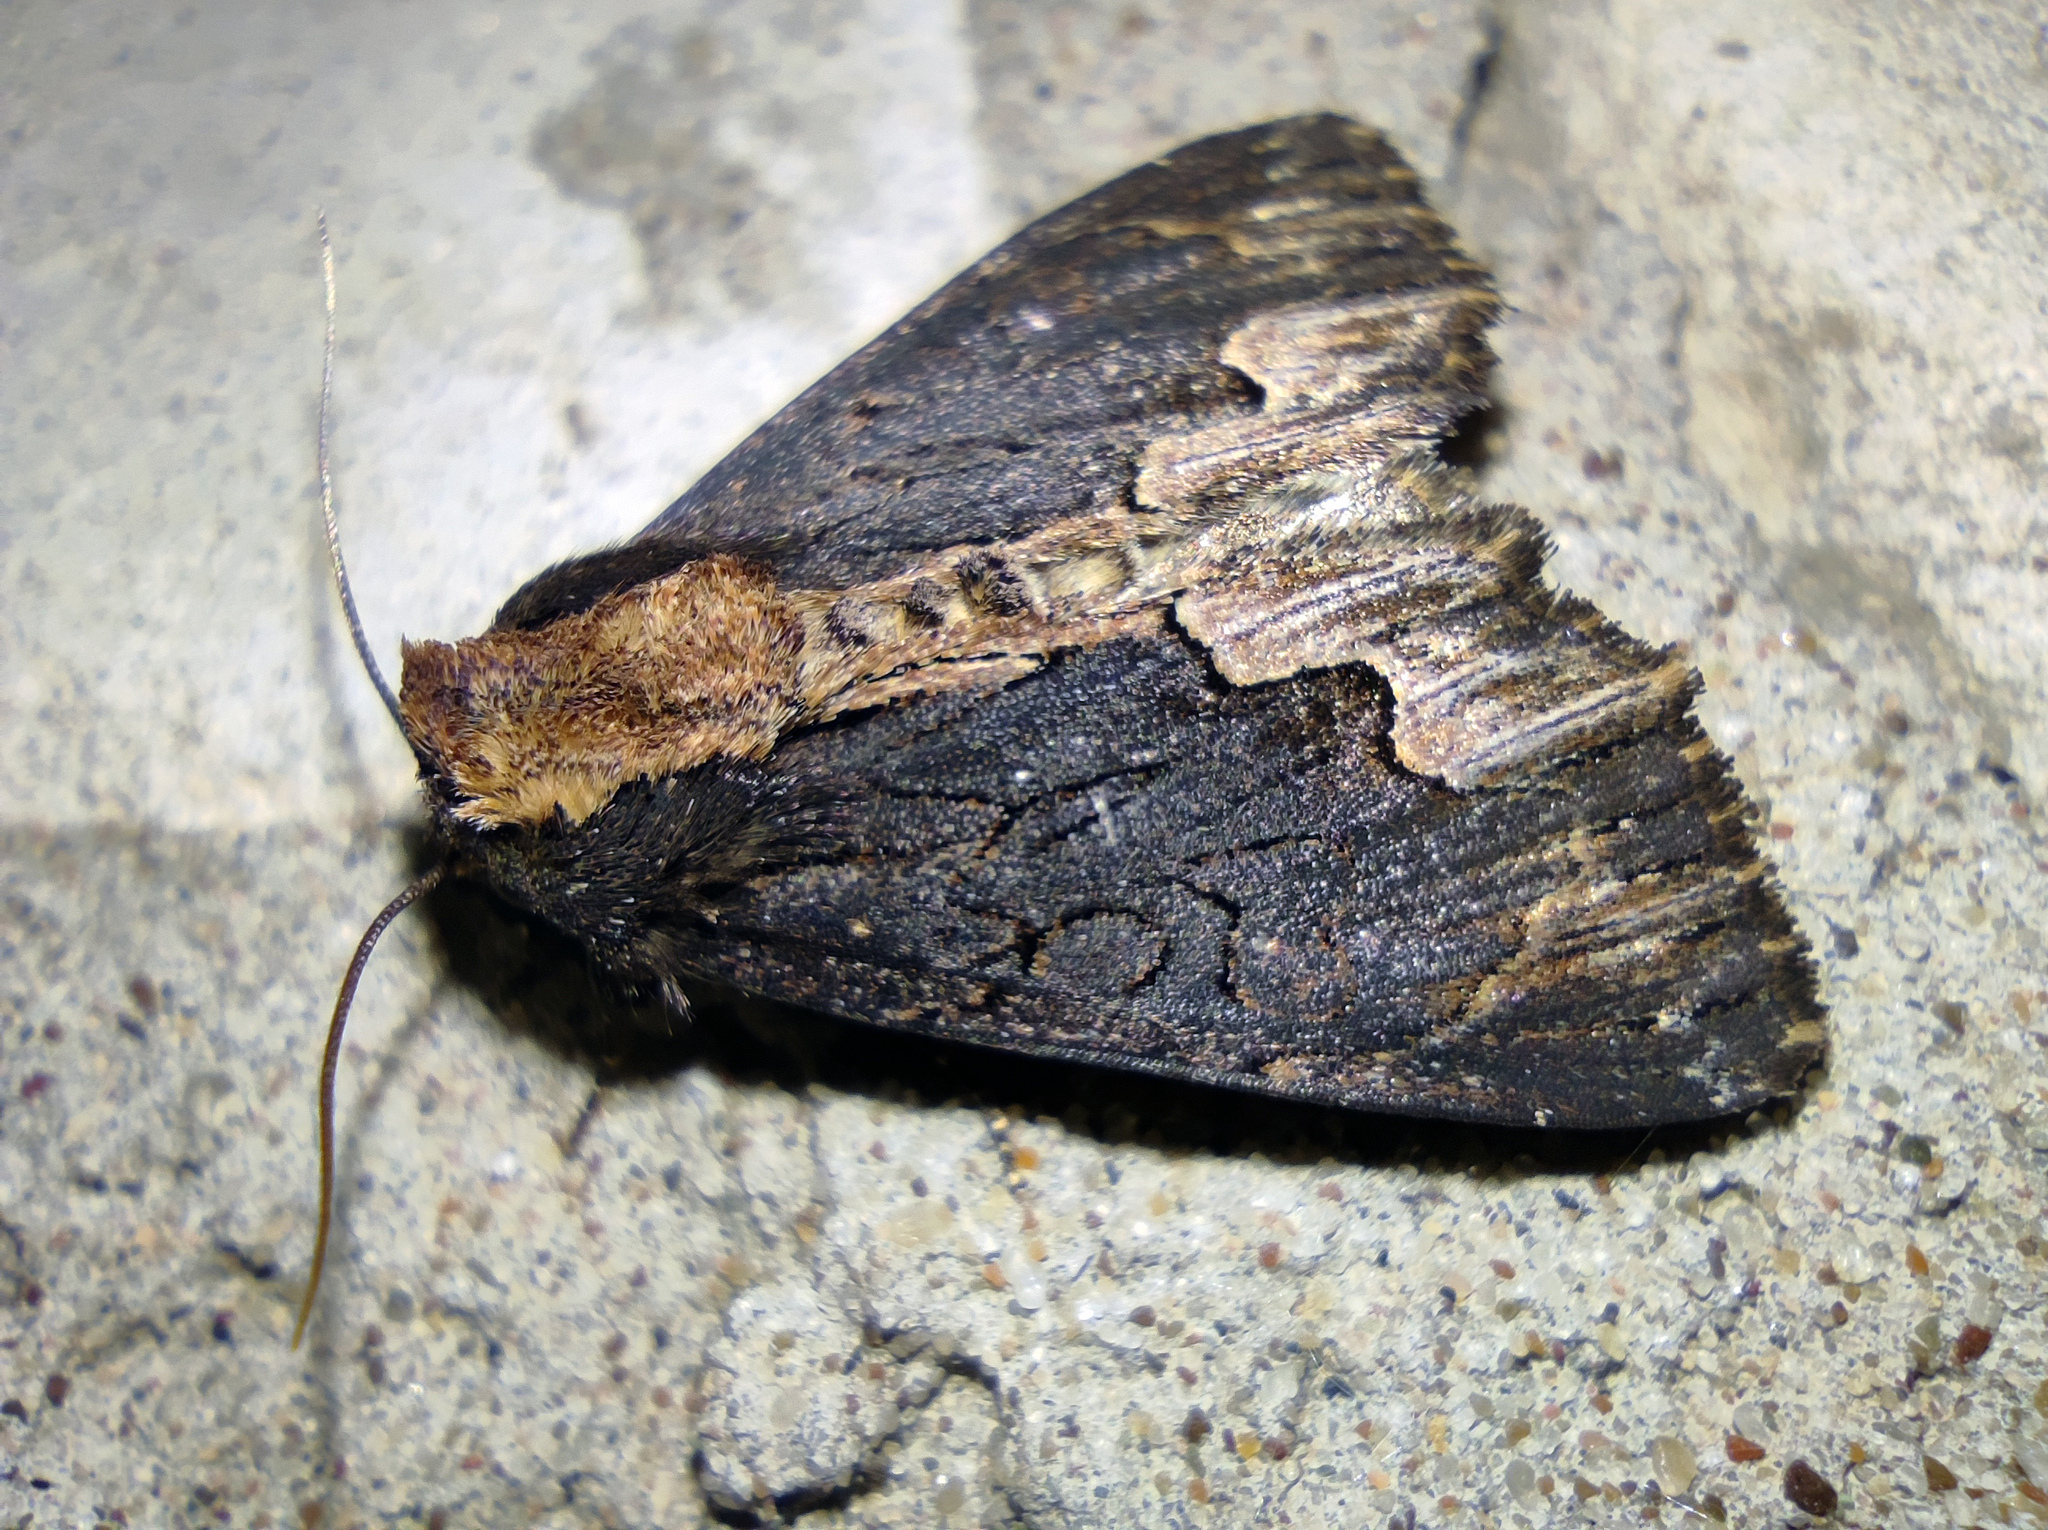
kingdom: Animalia
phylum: Arthropoda
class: Insecta
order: Lepidoptera
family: Noctuidae
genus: Dypterygia
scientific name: Dypterygia scabriuscula
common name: Bird's wing
